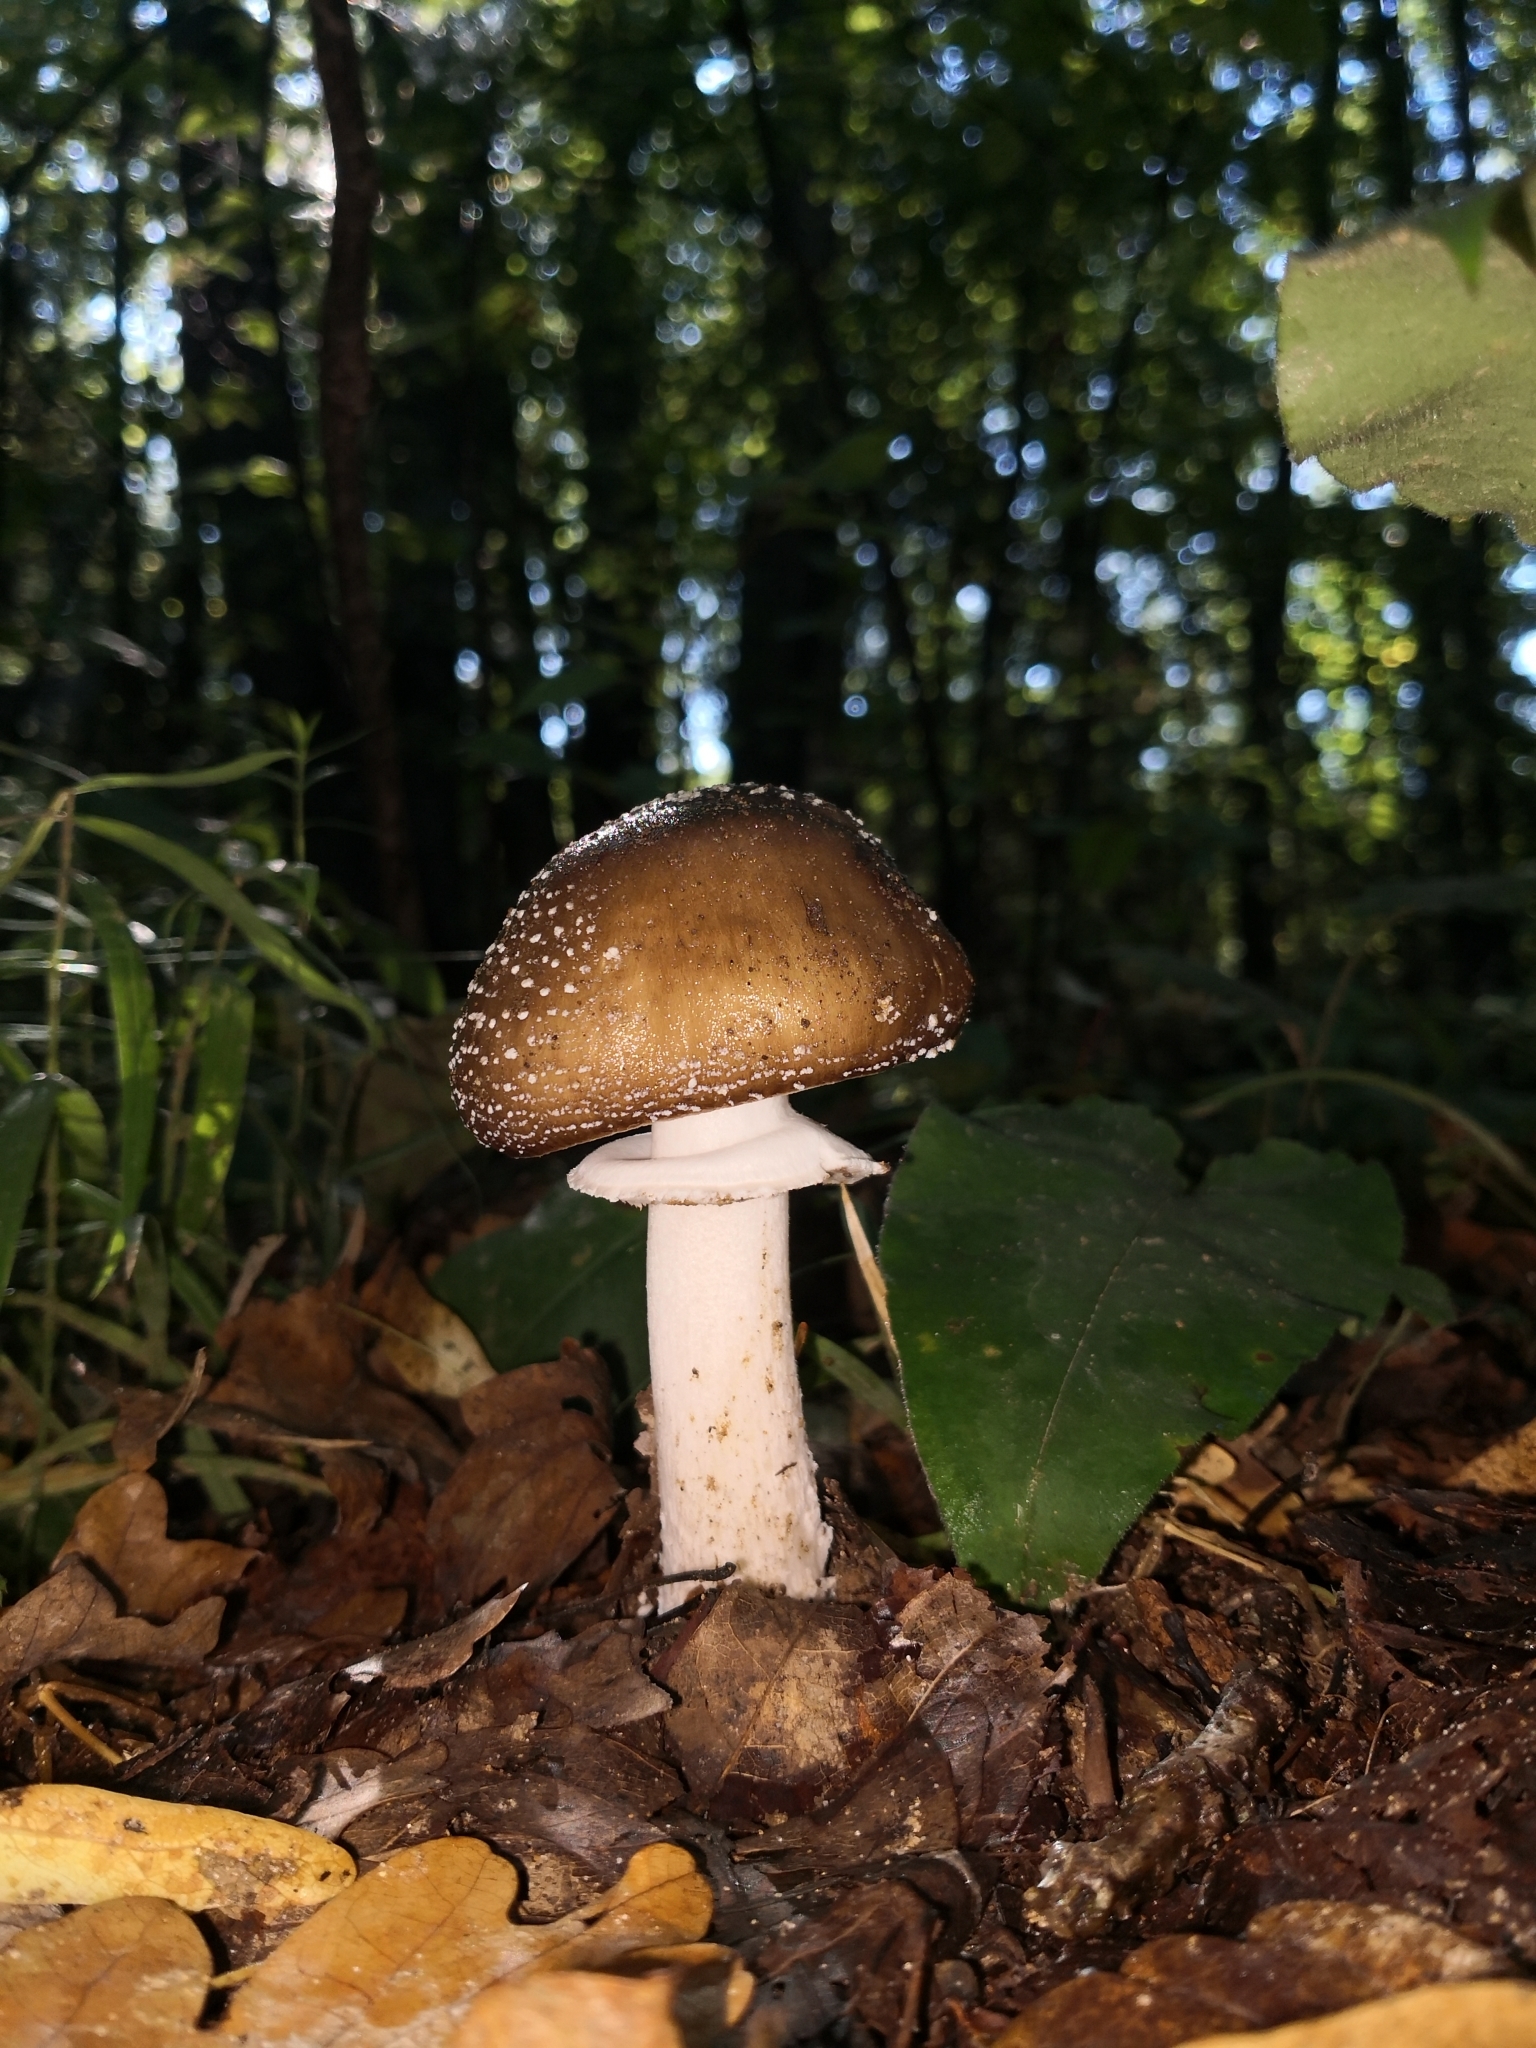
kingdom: Fungi
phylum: Basidiomycota
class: Agaricomycetes
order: Agaricales
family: Amanitaceae
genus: Amanita
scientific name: Amanita pantherina
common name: Panthercap
